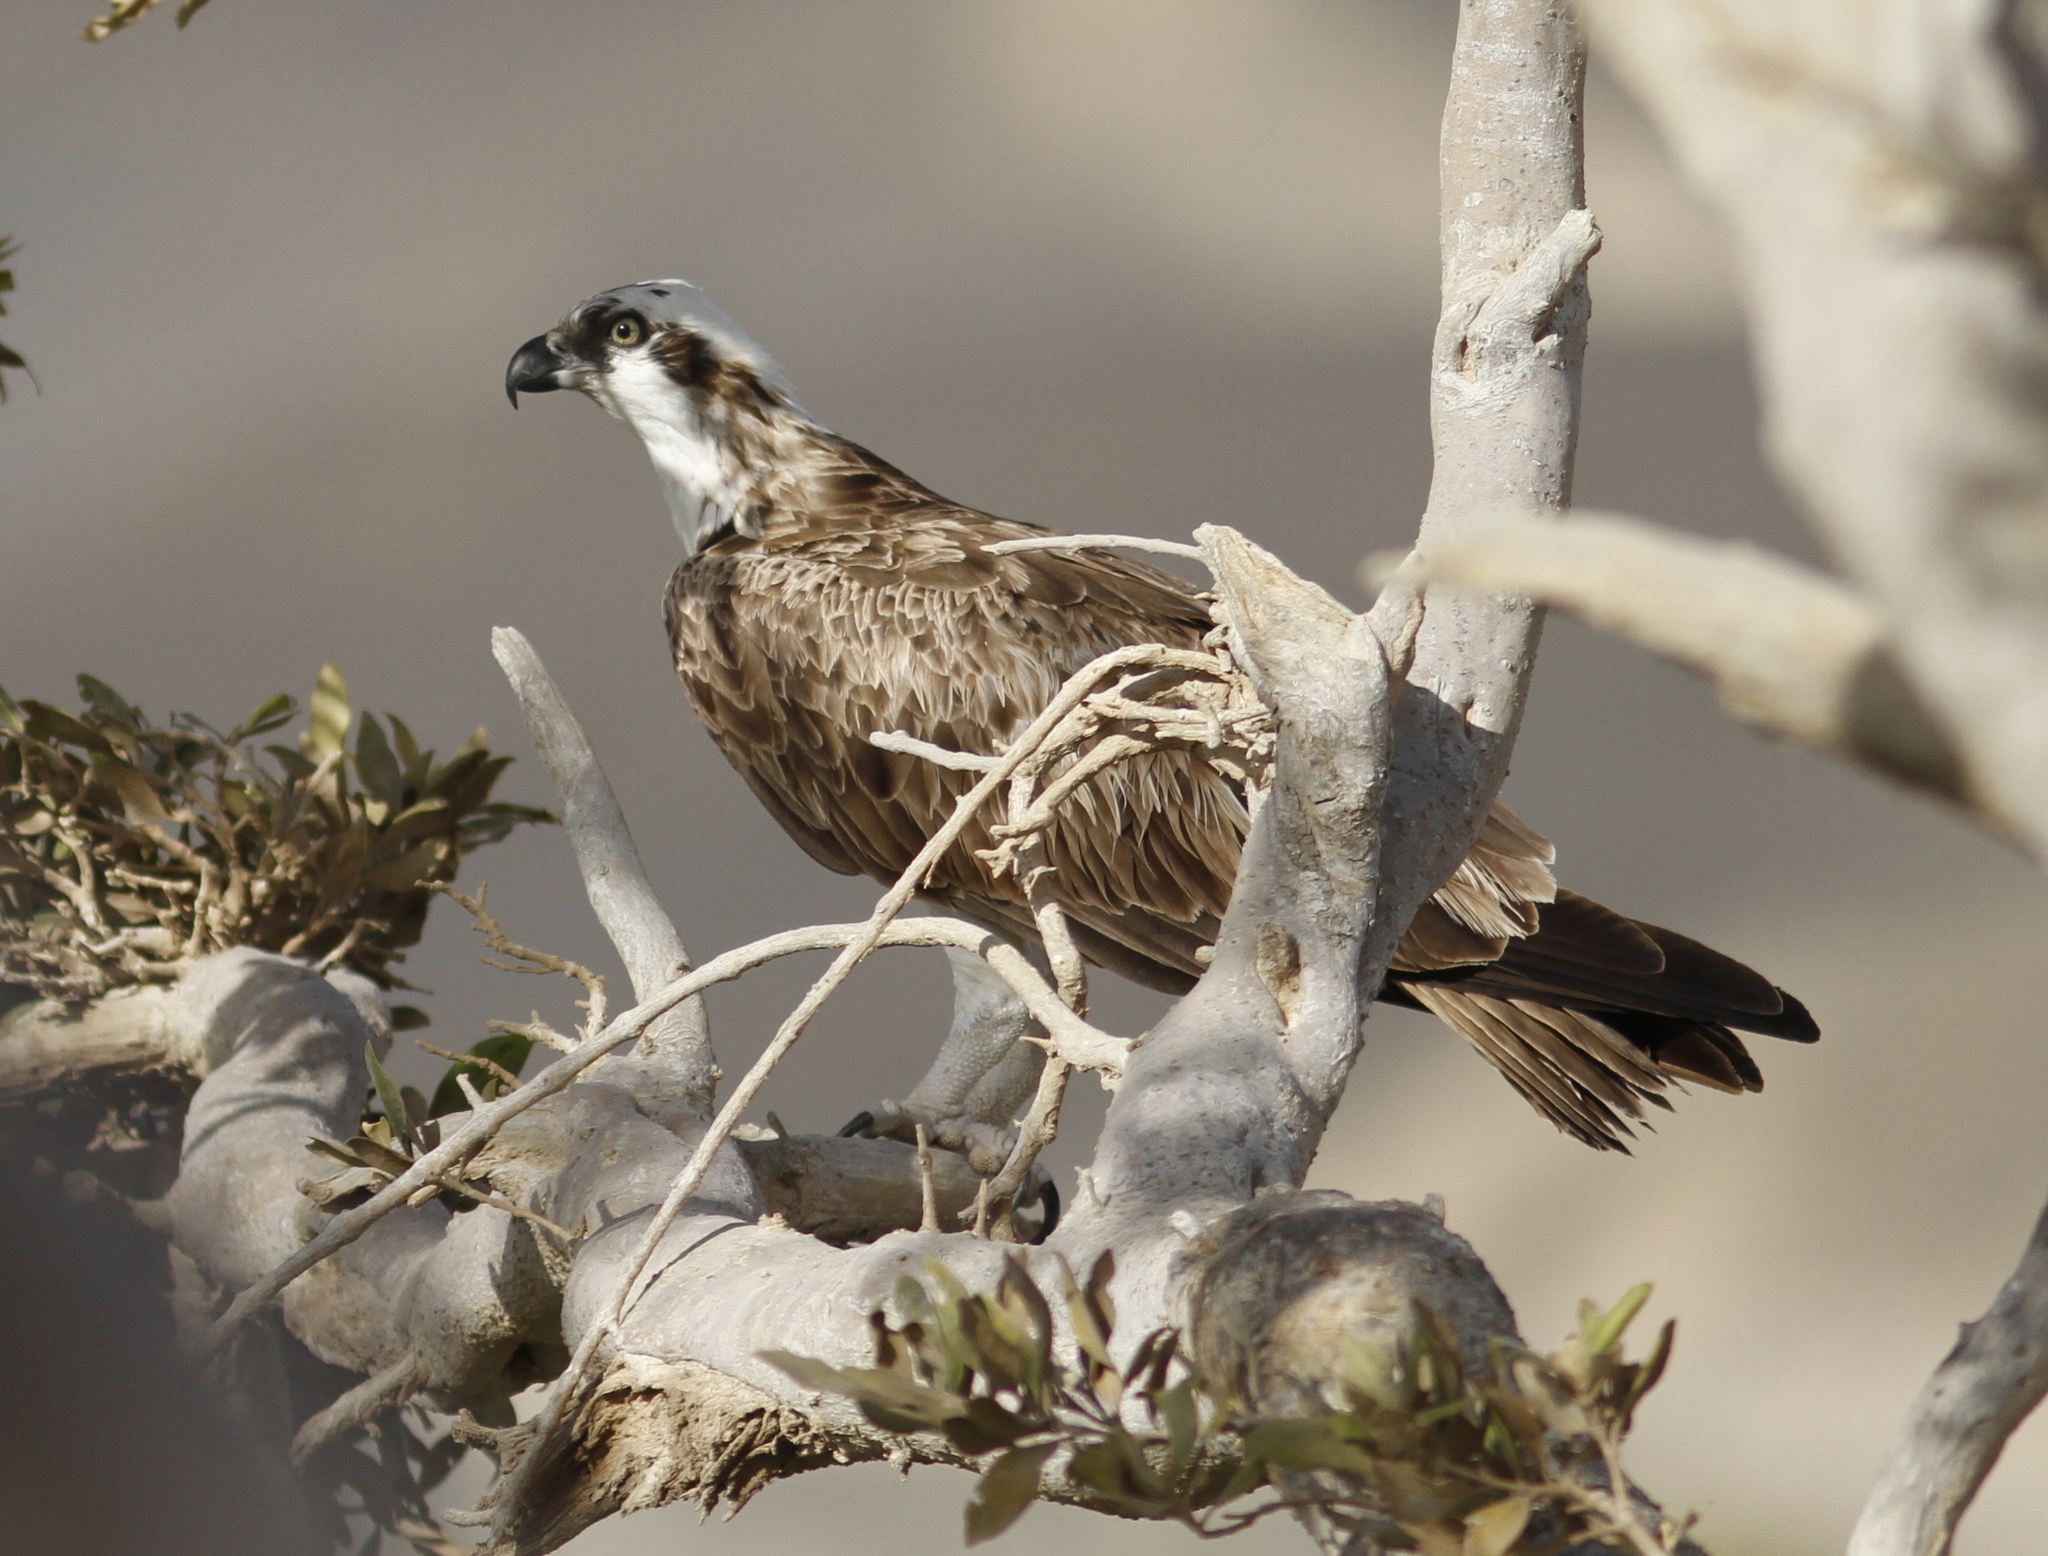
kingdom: Animalia
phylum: Chordata
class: Aves
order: Accipitriformes
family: Pandionidae
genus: Pandion
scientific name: Pandion haliaetus
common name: Osprey
